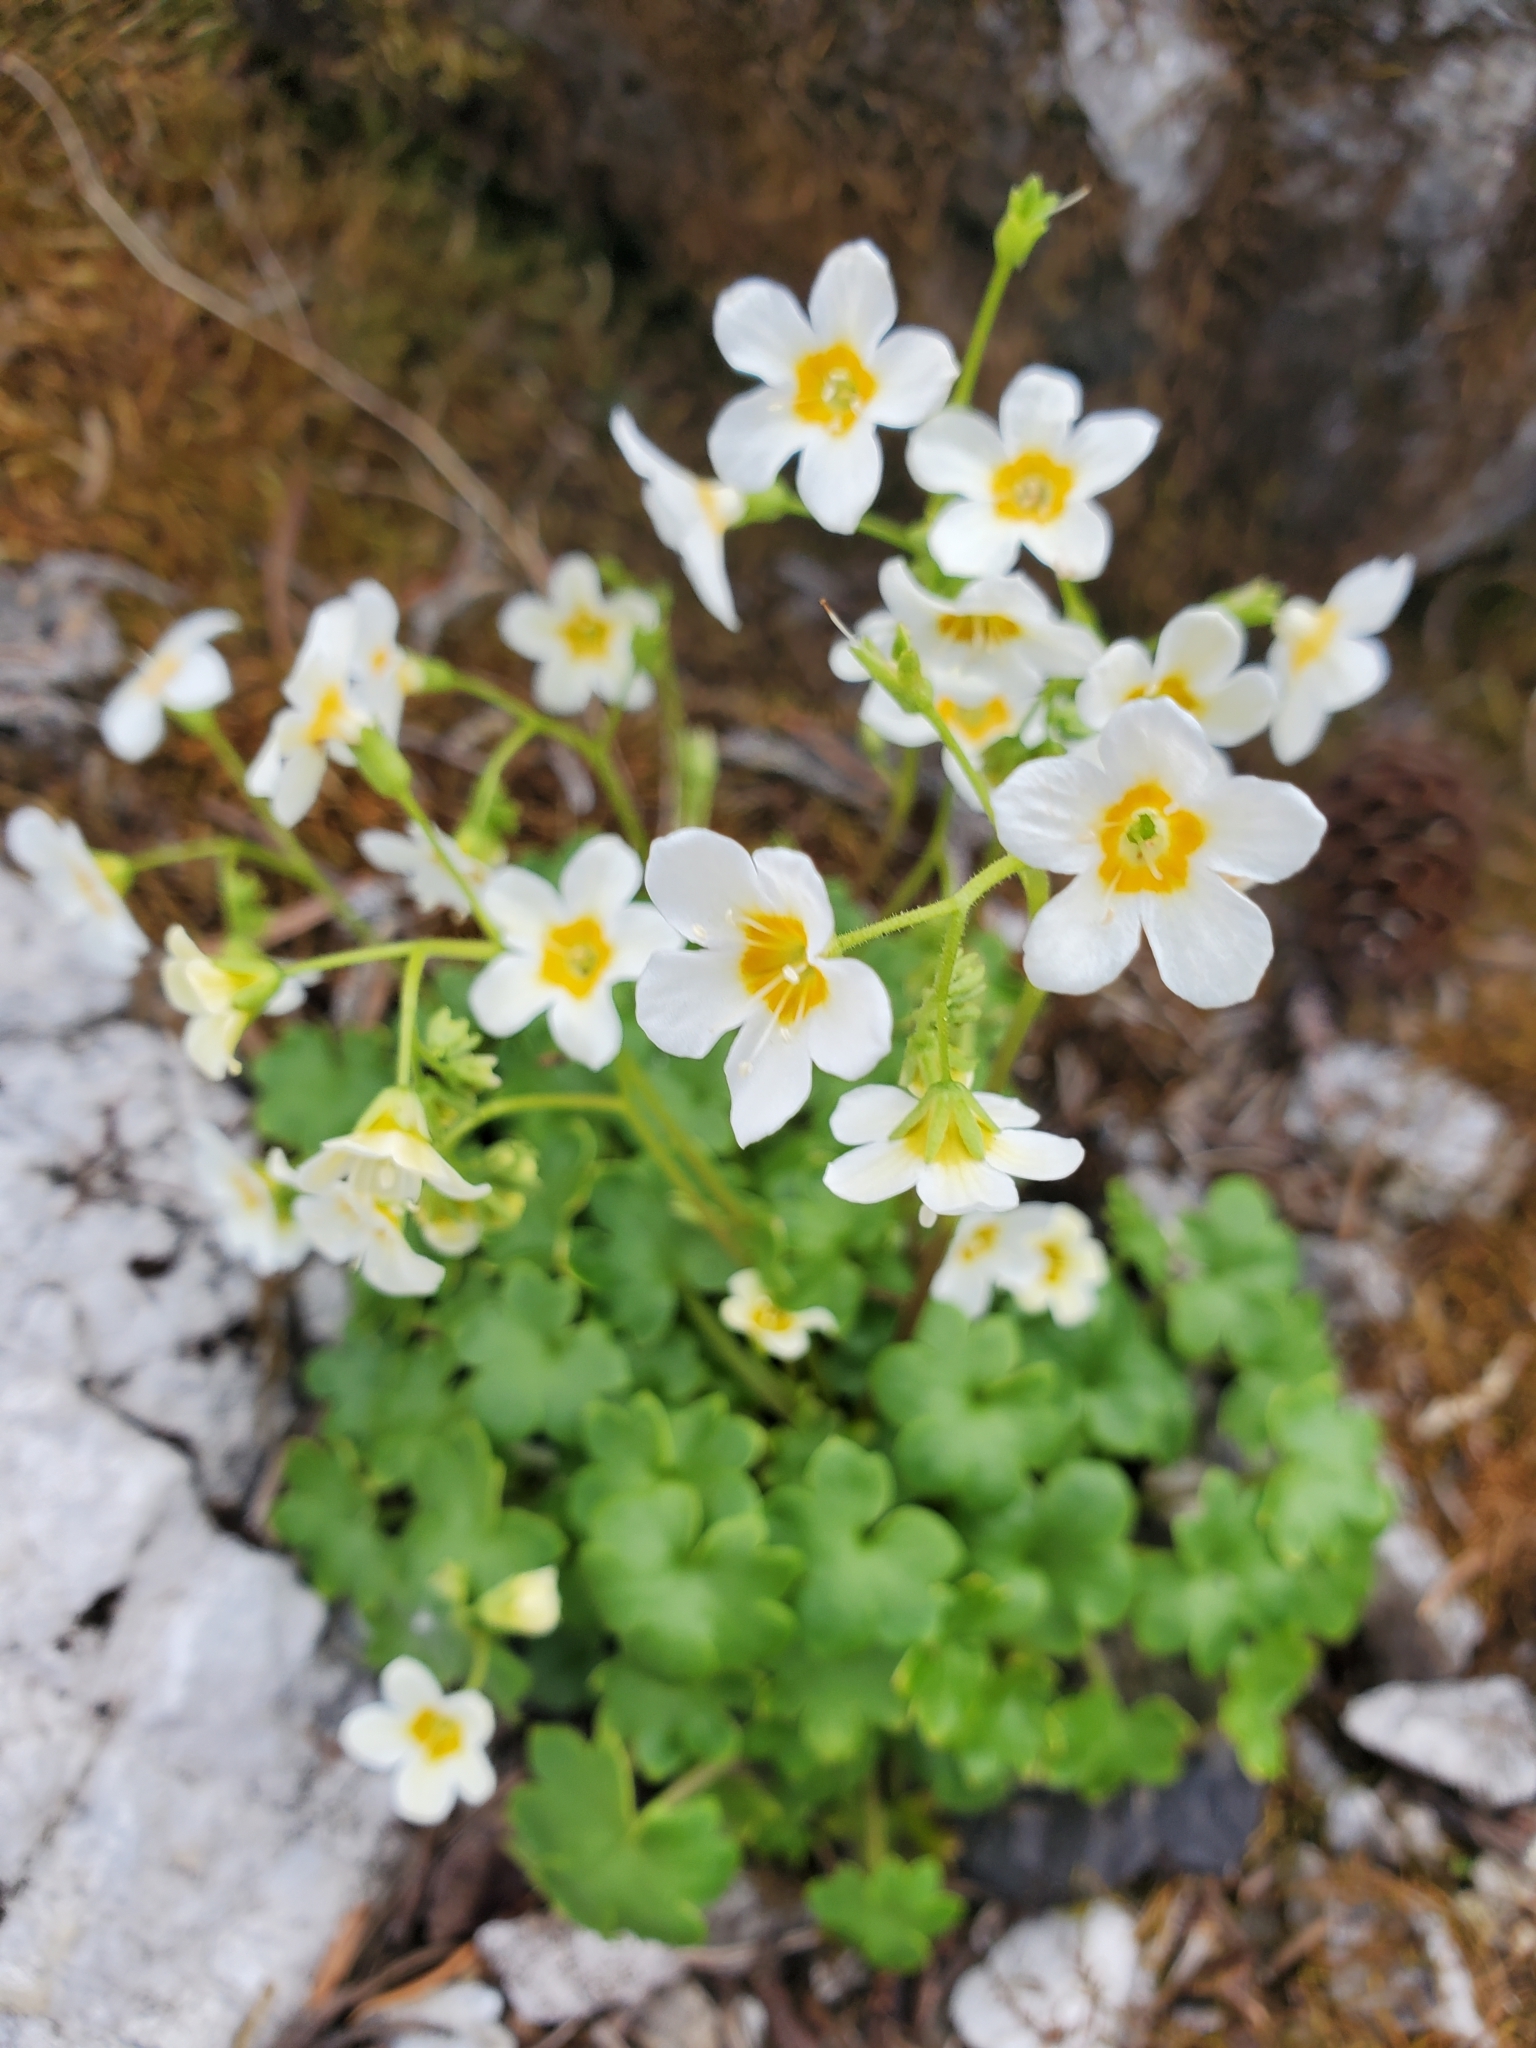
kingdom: Plantae
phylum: Tracheophyta
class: Magnoliopsida
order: Boraginales
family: Hydrophyllaceae
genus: Romanzoffia
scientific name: Romanzoffia sitchensis
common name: Sitka mistmaid
